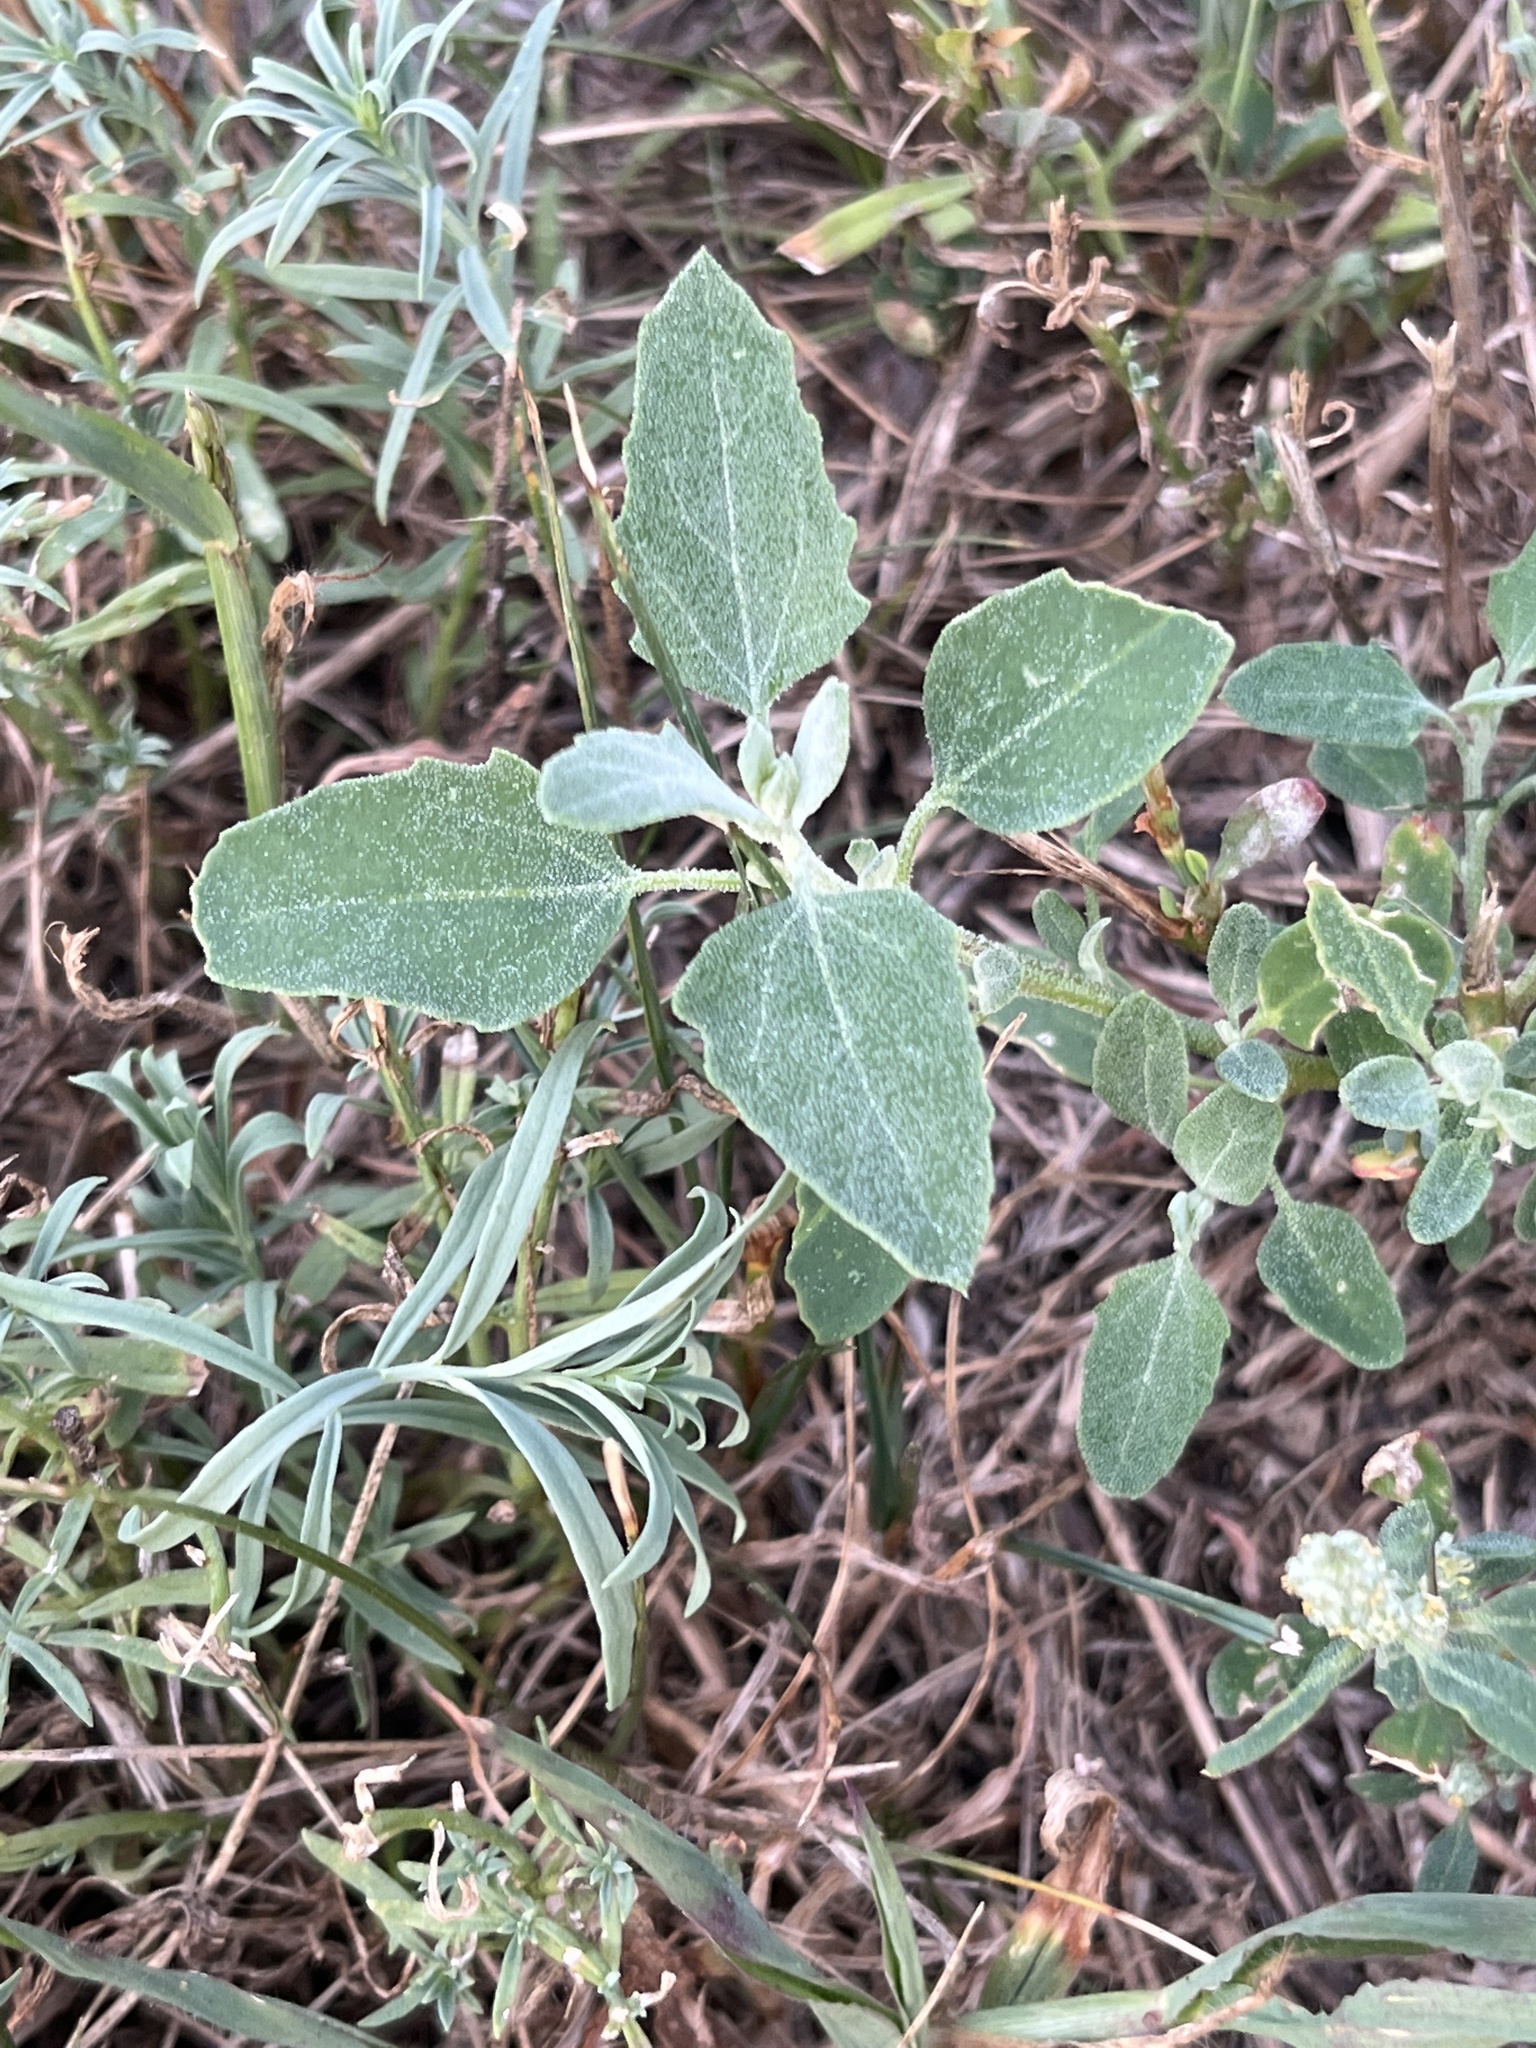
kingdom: Plantae
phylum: Tracheophyta
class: Magnoliopsida
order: Caryophyllales
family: Amaranthaceae
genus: Chenopodium
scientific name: Chenopodium album
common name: Fat-hen
